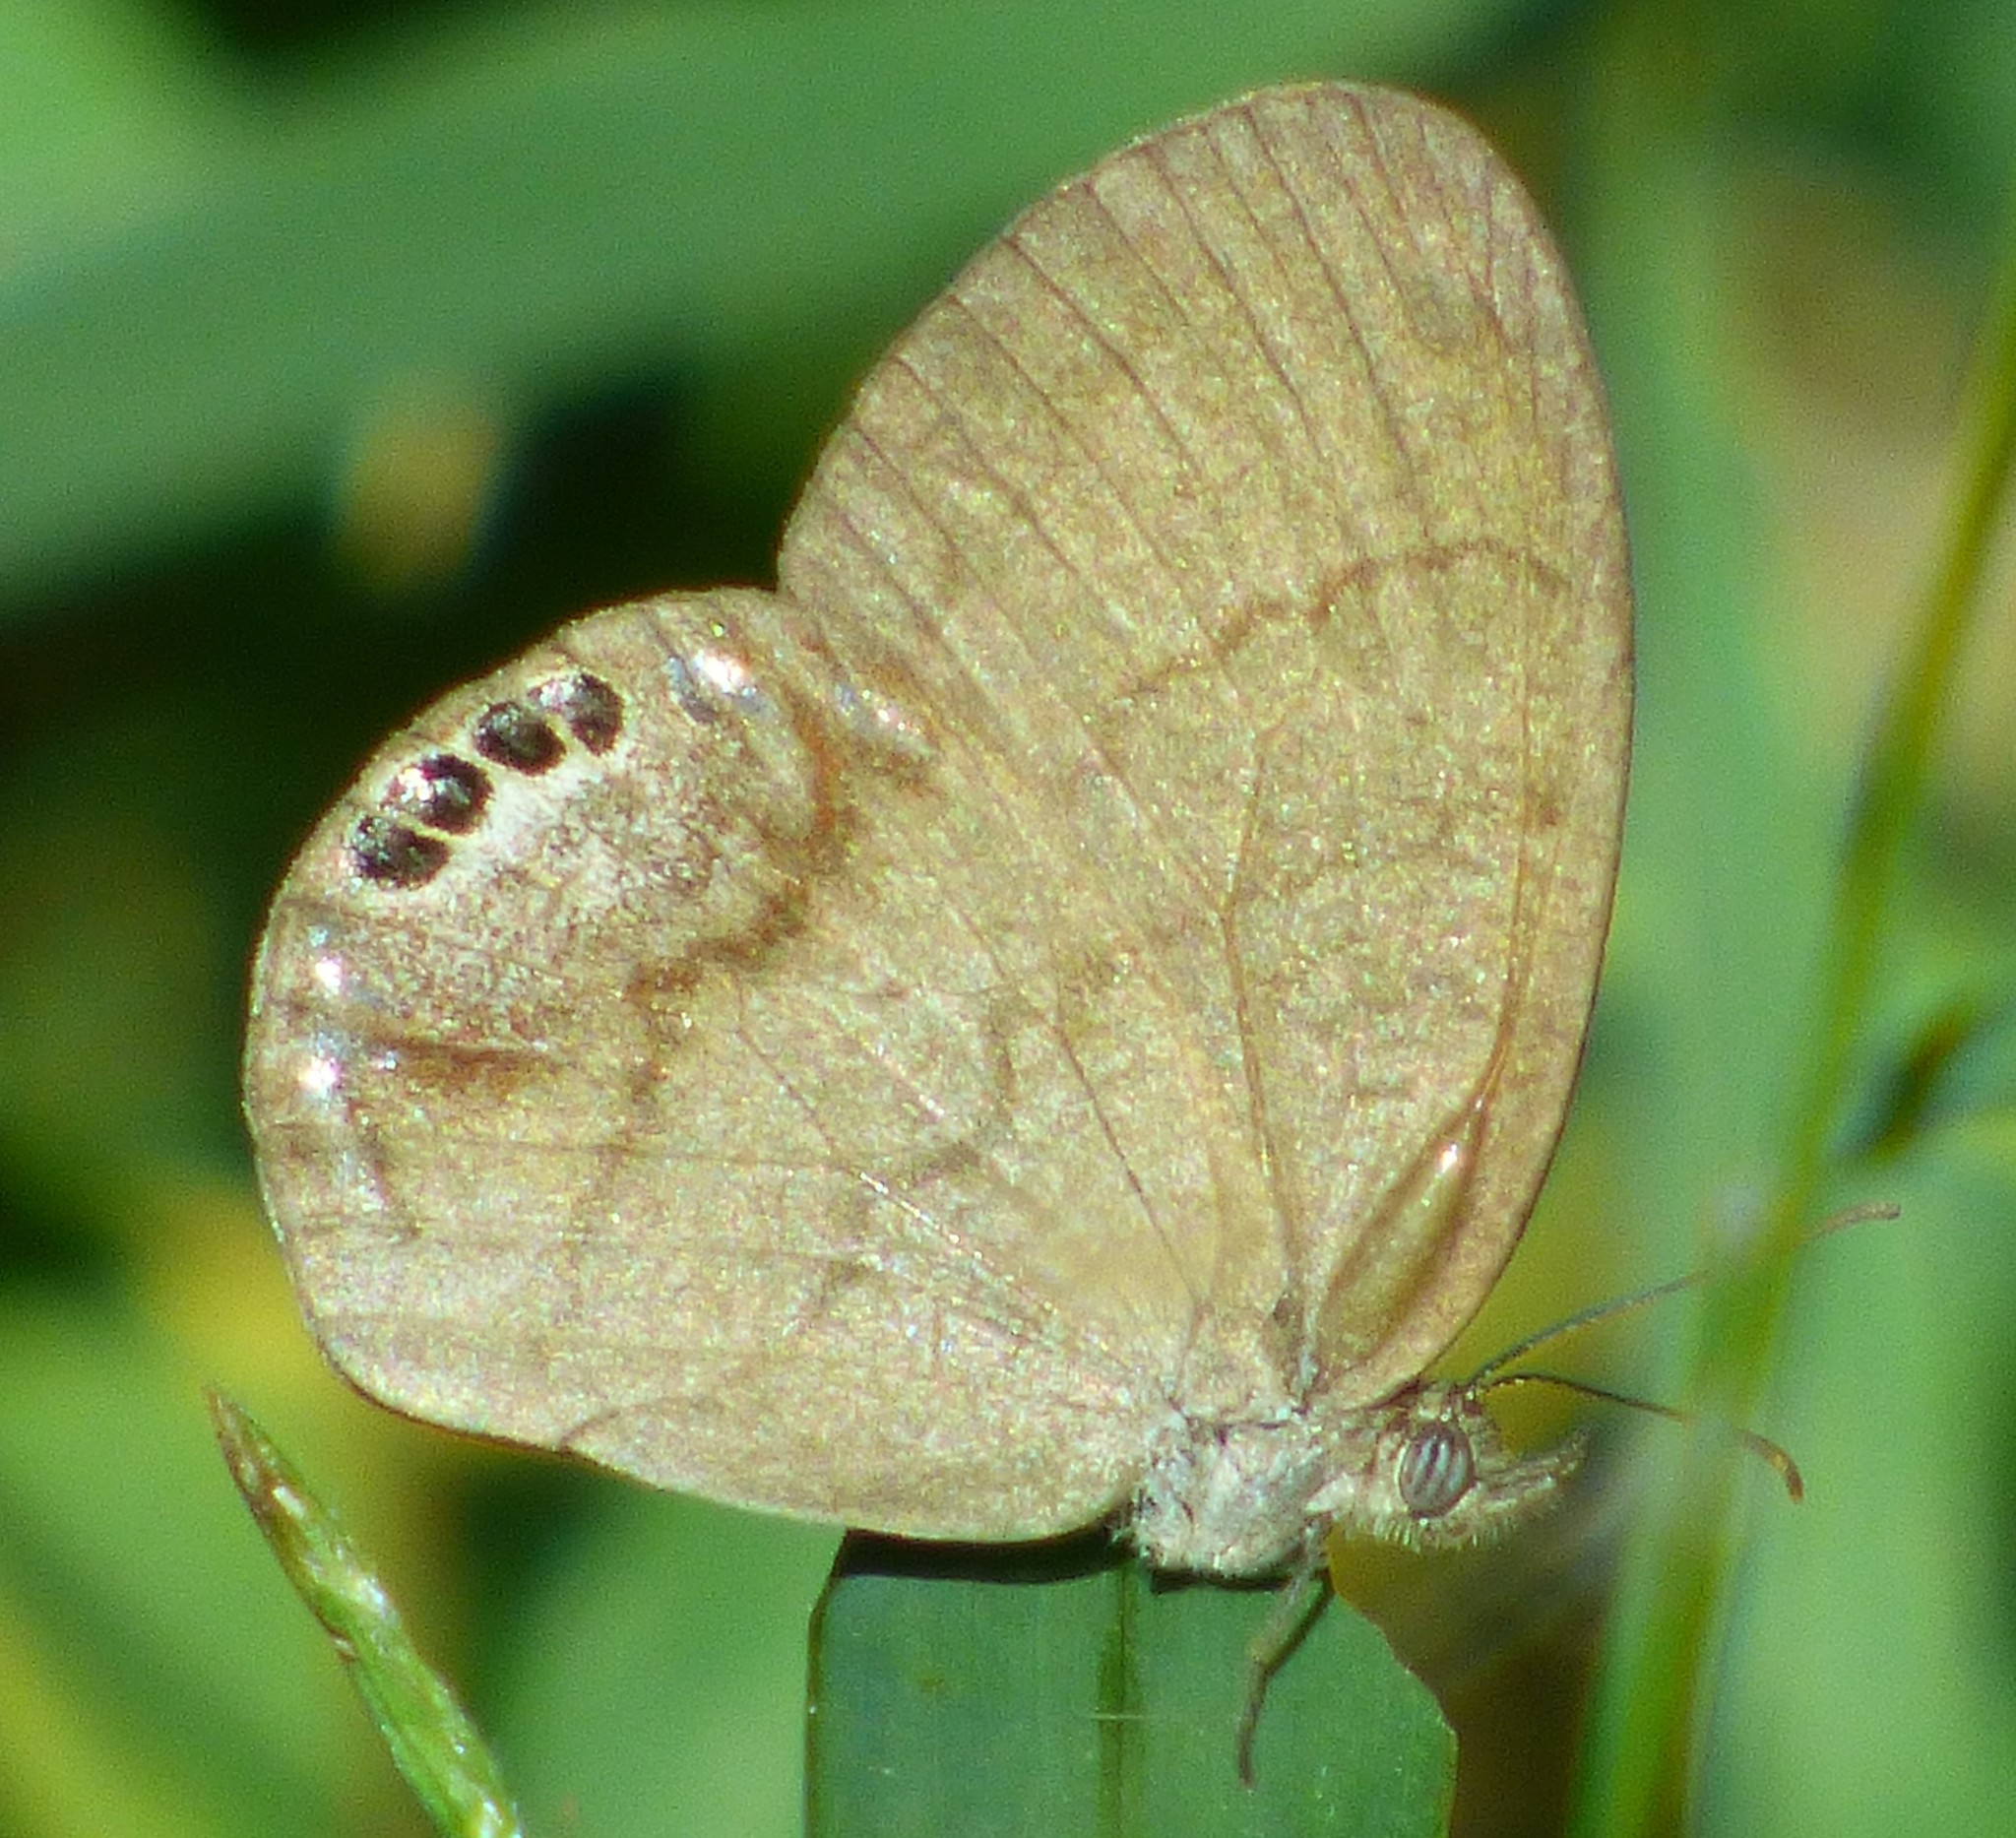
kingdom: Animalia
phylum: Arthropoda
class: Insecta
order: Lepidoptera
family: Nymphalidae
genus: Euptychia
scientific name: Euptychia cornelius
